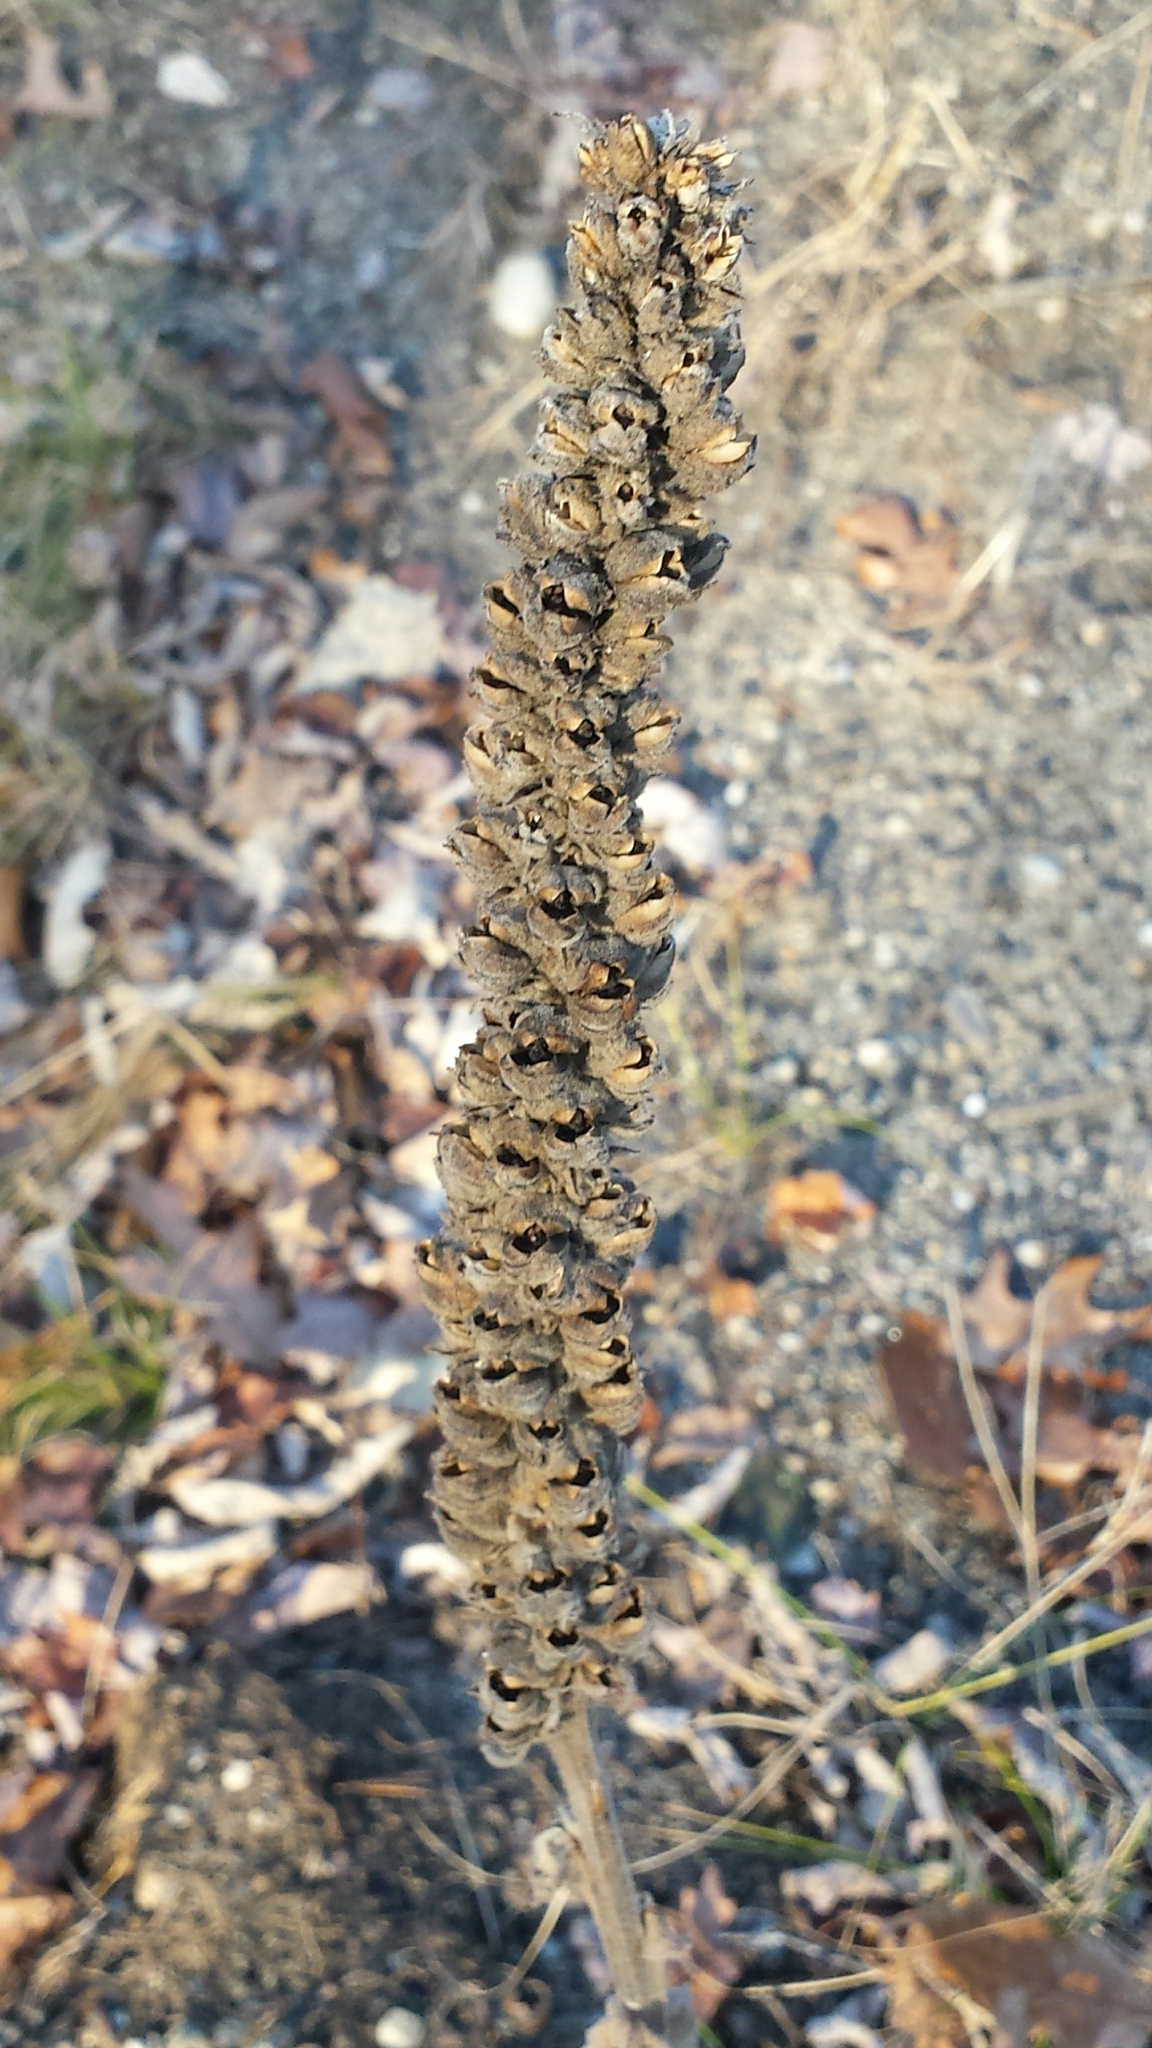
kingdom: Plantae
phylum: Tracheophyta
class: Magnoliopsida
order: Lamiales
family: Scrophulariaceae
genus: Verbascum
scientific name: Verbascum thapsus
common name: Common mullein
